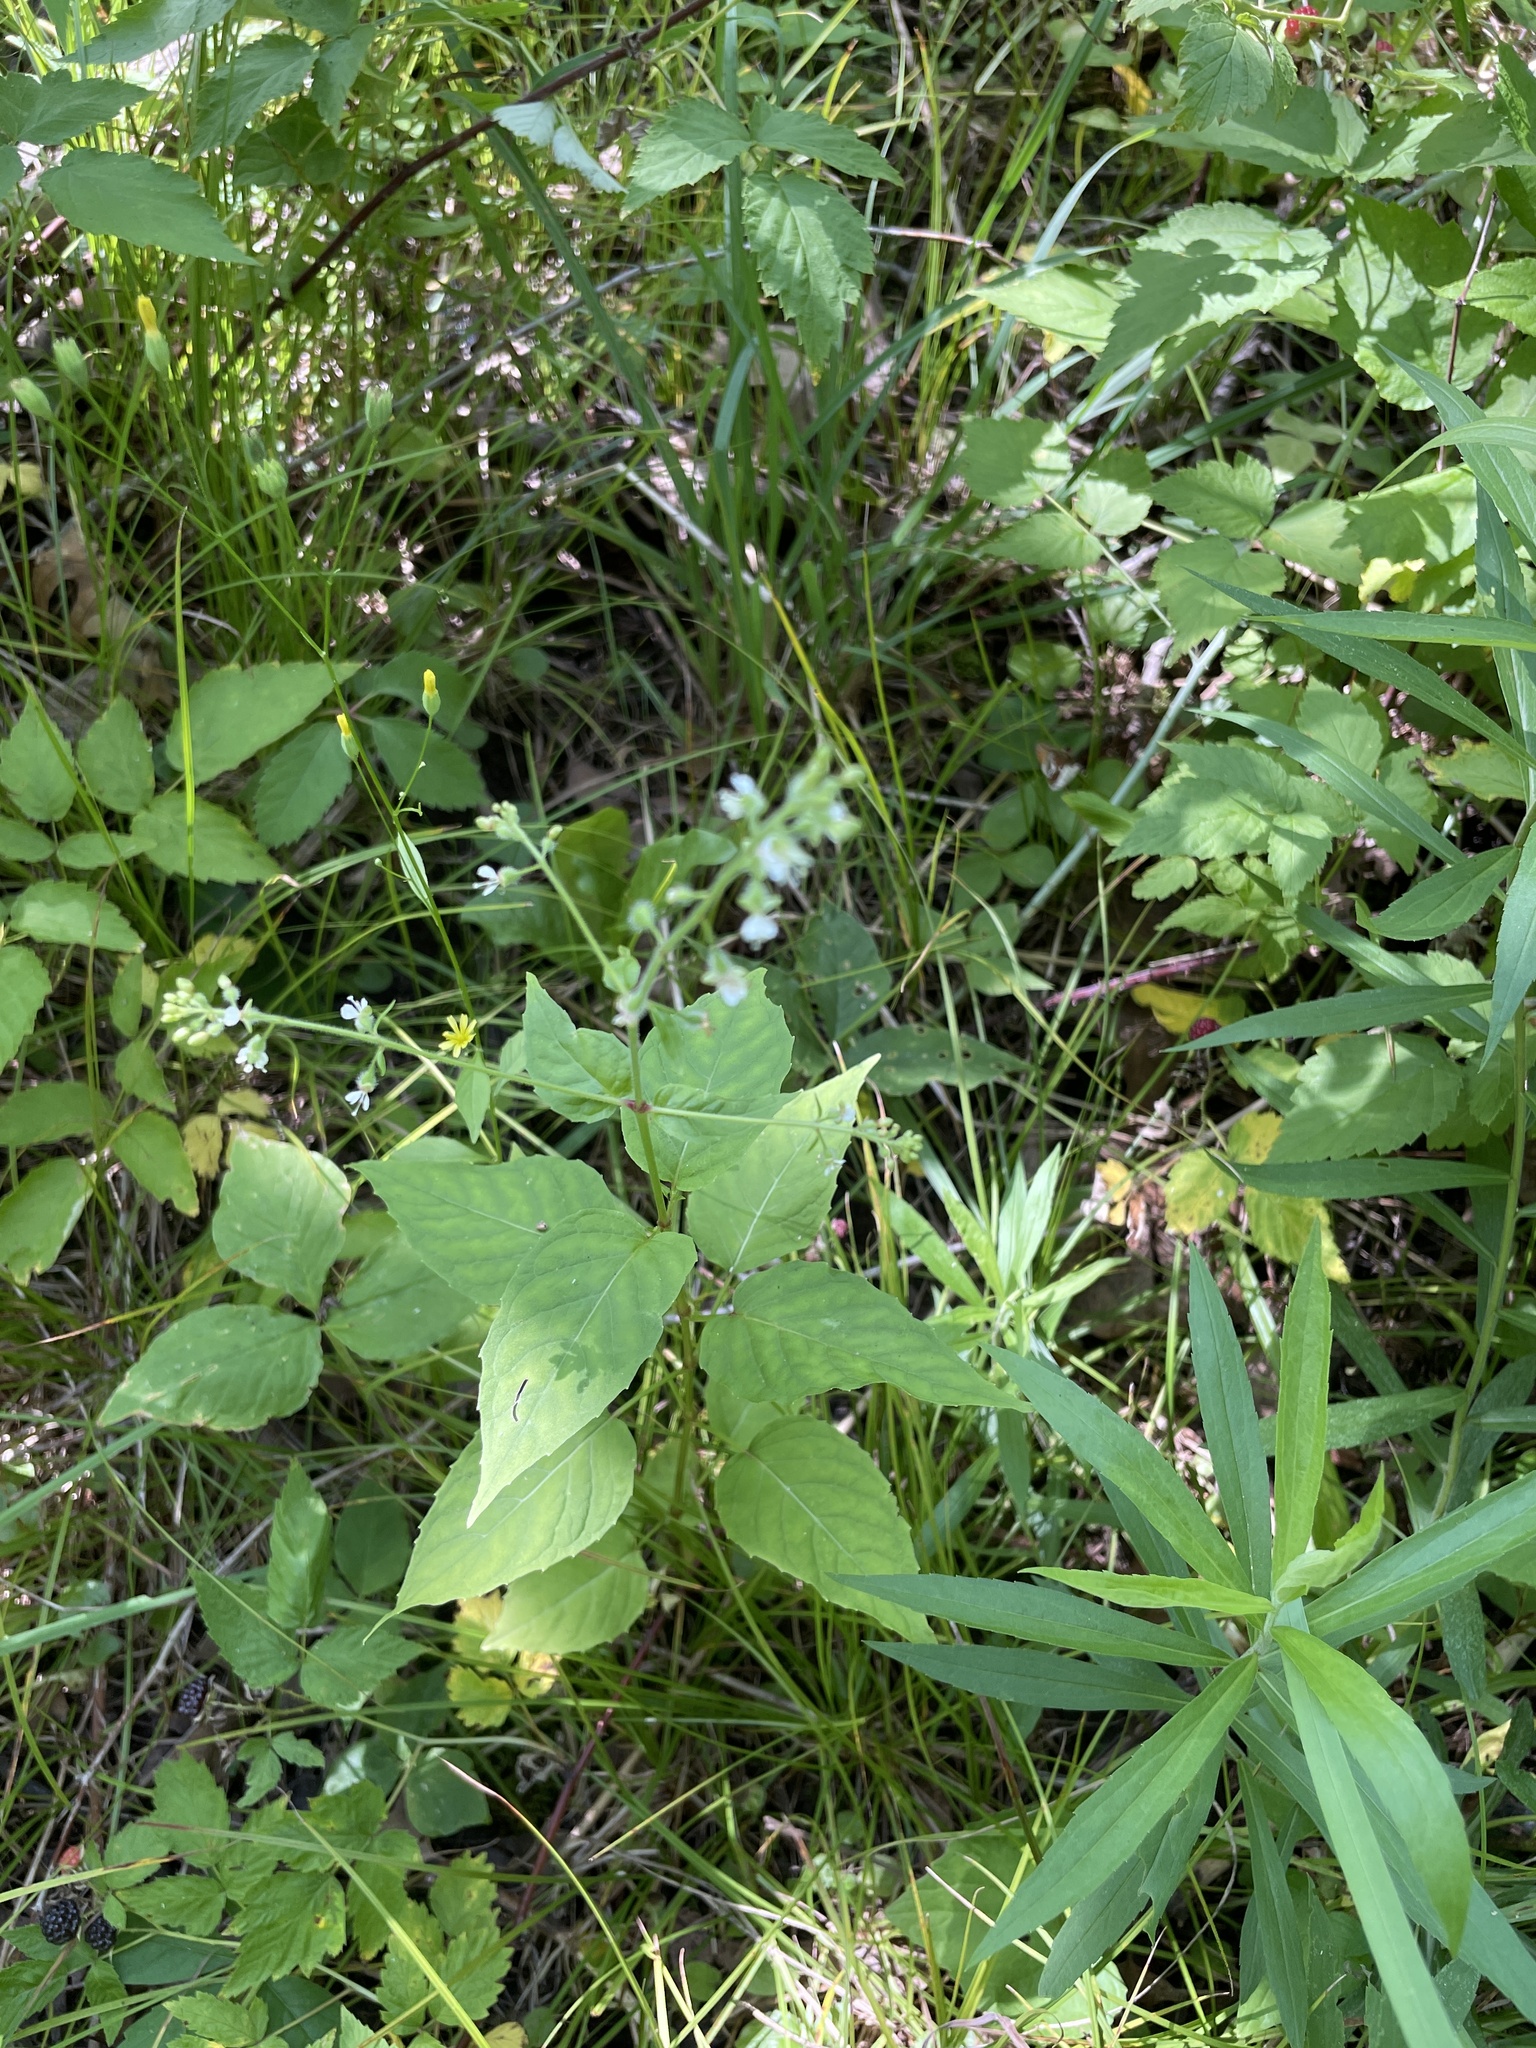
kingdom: Plantae
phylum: Tracheophyta
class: Magnoliopsida
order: Myrtales
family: Onagraceae
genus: Circaea
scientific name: Circaea canadensis
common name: Broad-leaved enchanter's nightshade
